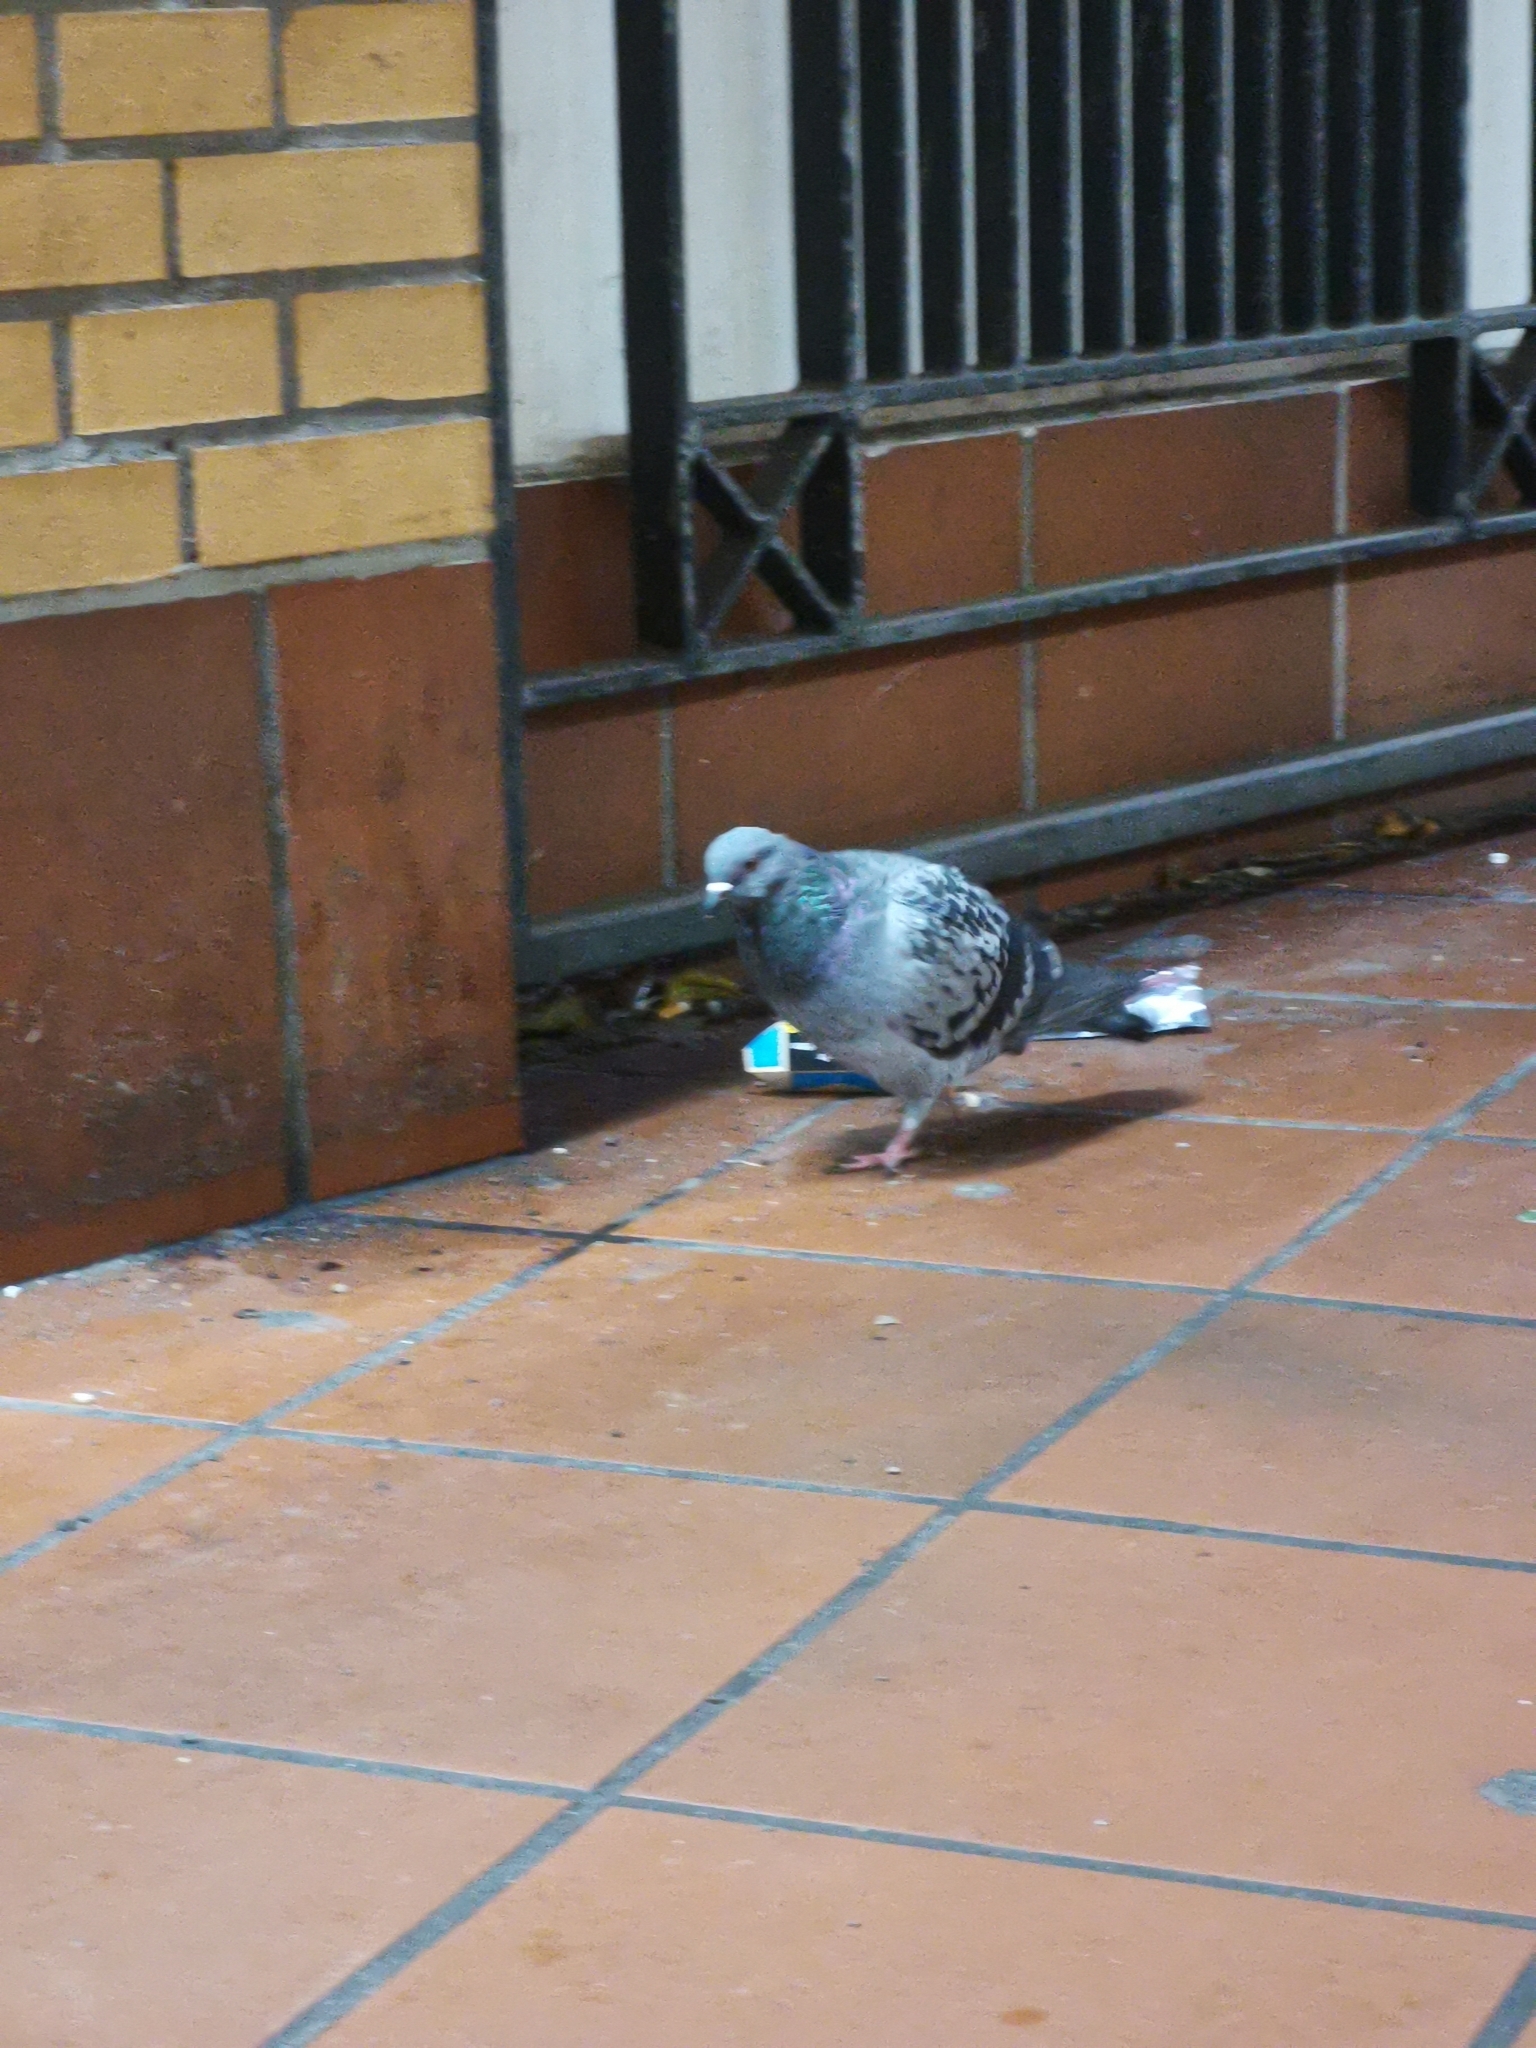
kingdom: Animalia
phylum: Chordata
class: Aves
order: Columbiformes
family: Columbidae
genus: Columba
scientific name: Columba livia
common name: Rock pigeon
